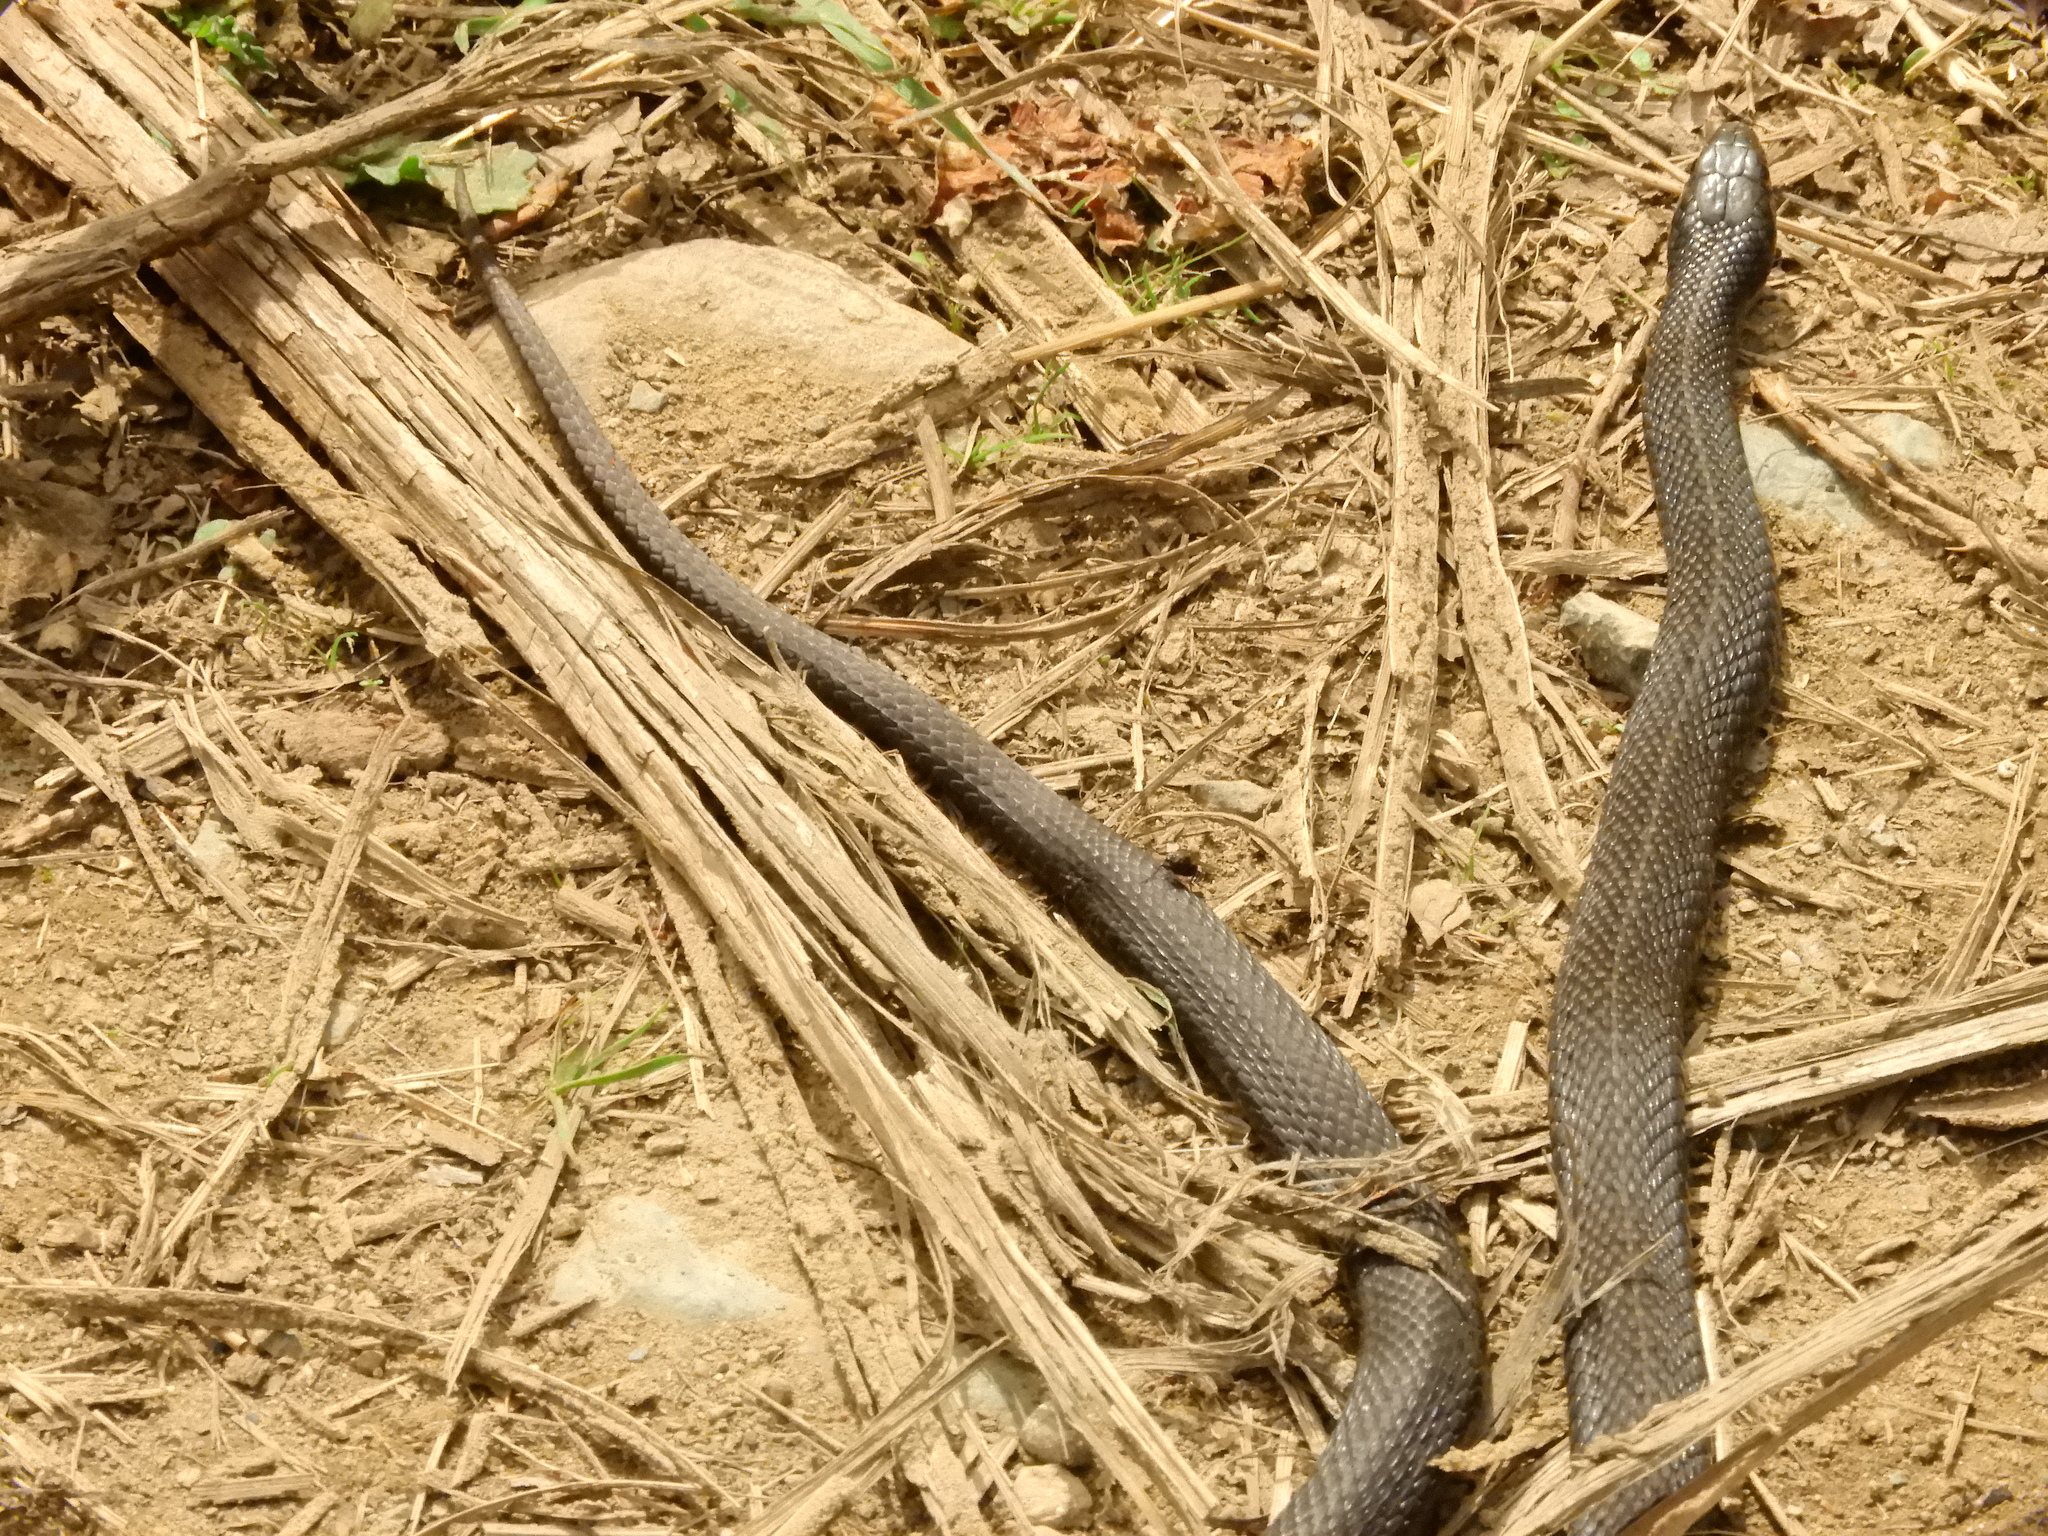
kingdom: Animalia
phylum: Chordata
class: Squamata
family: Colubridae
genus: Thamnophis
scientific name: Thamnophis ordinoides
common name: Northwestern garter snake
